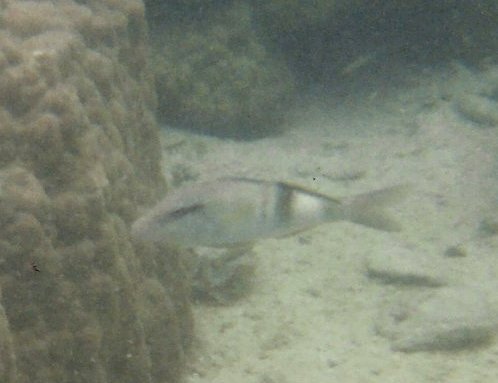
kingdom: Animalia
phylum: Chordata
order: Perciformes
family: Mullidae
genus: Parupeneus
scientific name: Parupeneus multifasciatus
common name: Manybar goatfish
